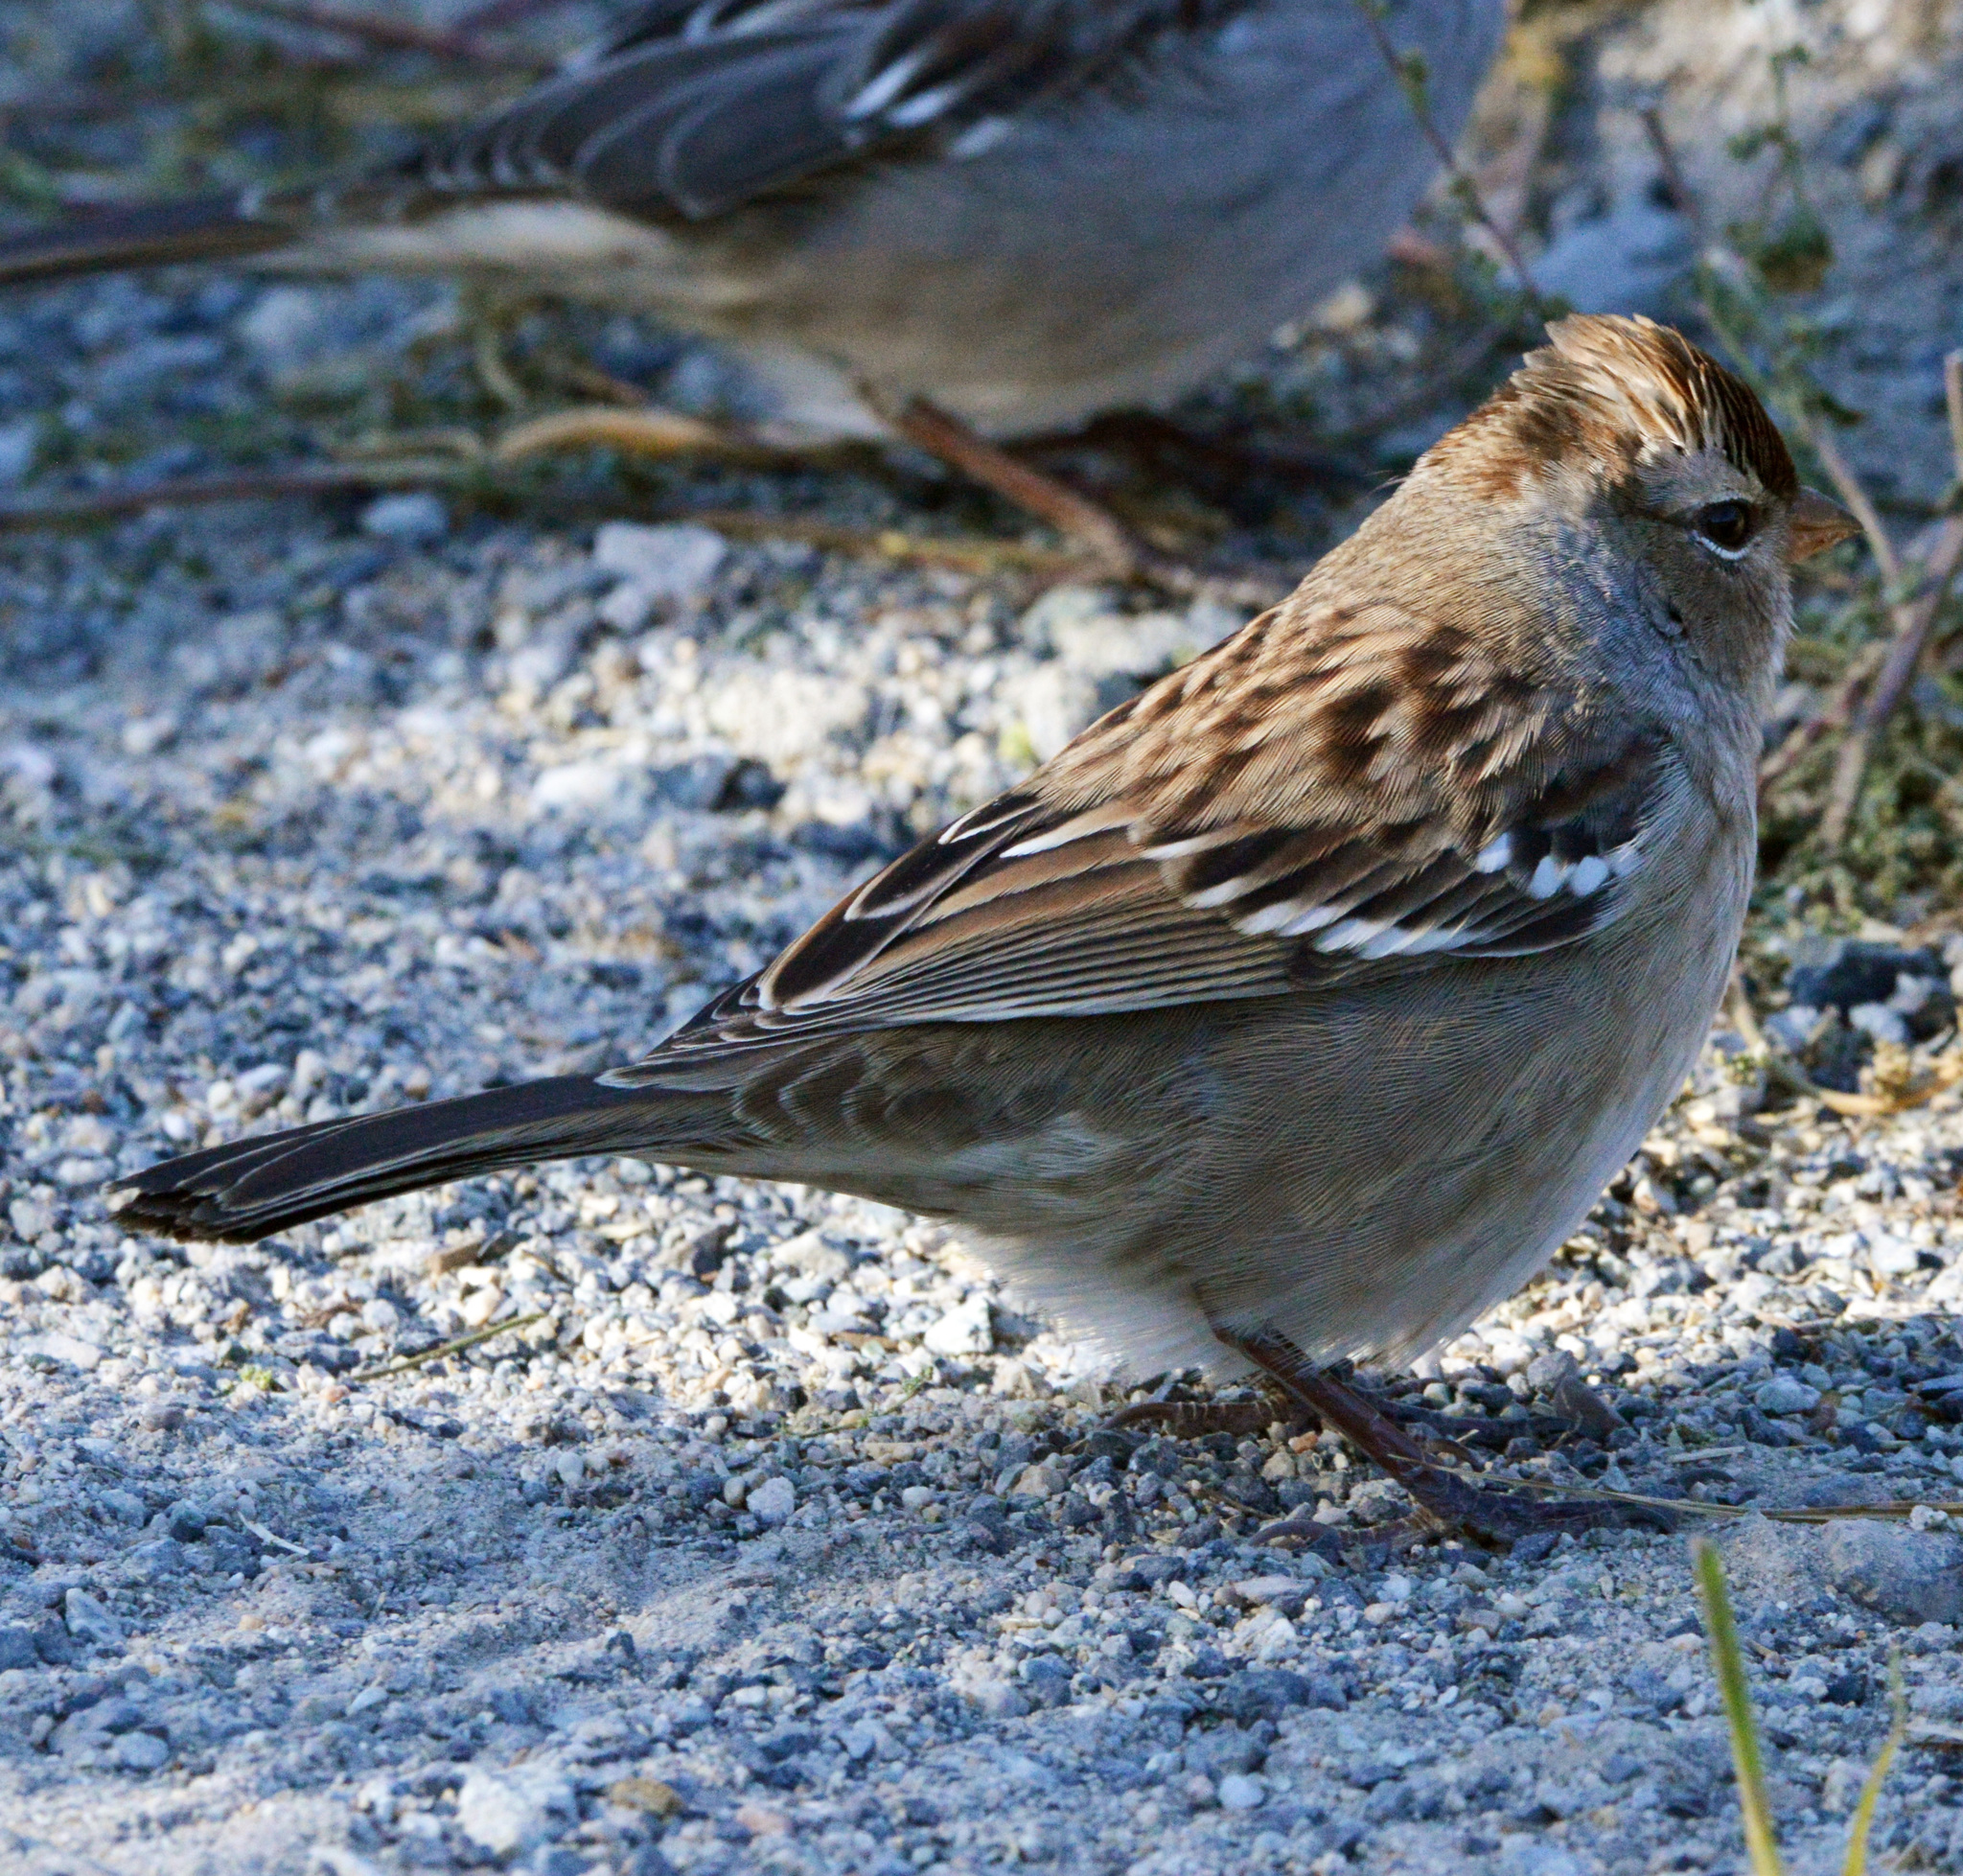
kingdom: Animalia
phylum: Chordata
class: Aves
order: Passeriformes
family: Passerellidae
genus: Zonotrichia
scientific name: Zonotrichia leucophrys
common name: White-crowned sparrow
